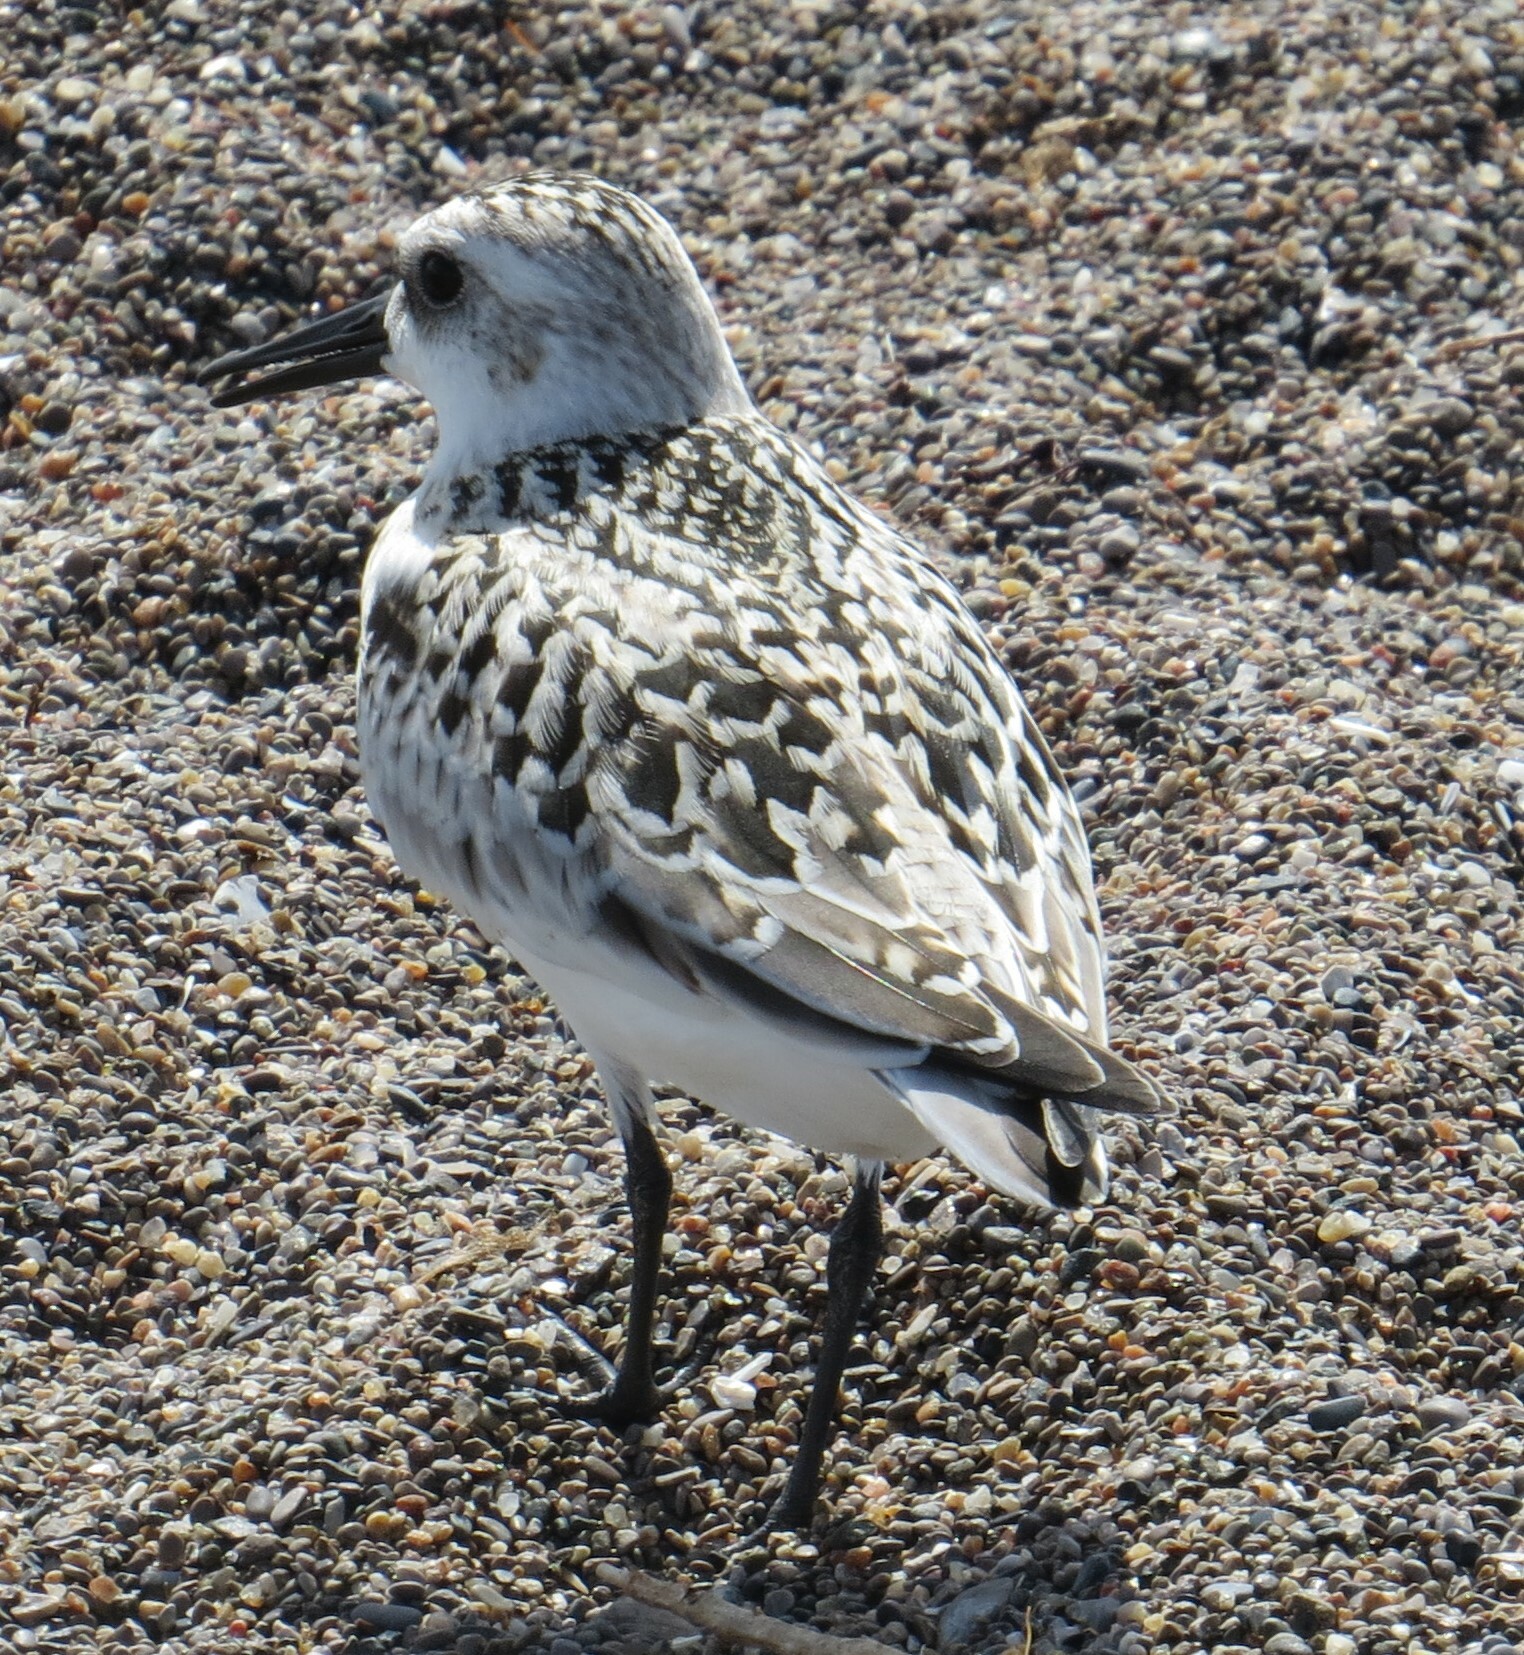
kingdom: Animalia
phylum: Chordata
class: Aves
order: Charadriiformes
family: Scolopacidae
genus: Calidris
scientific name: Calidris alba
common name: Sanderling
